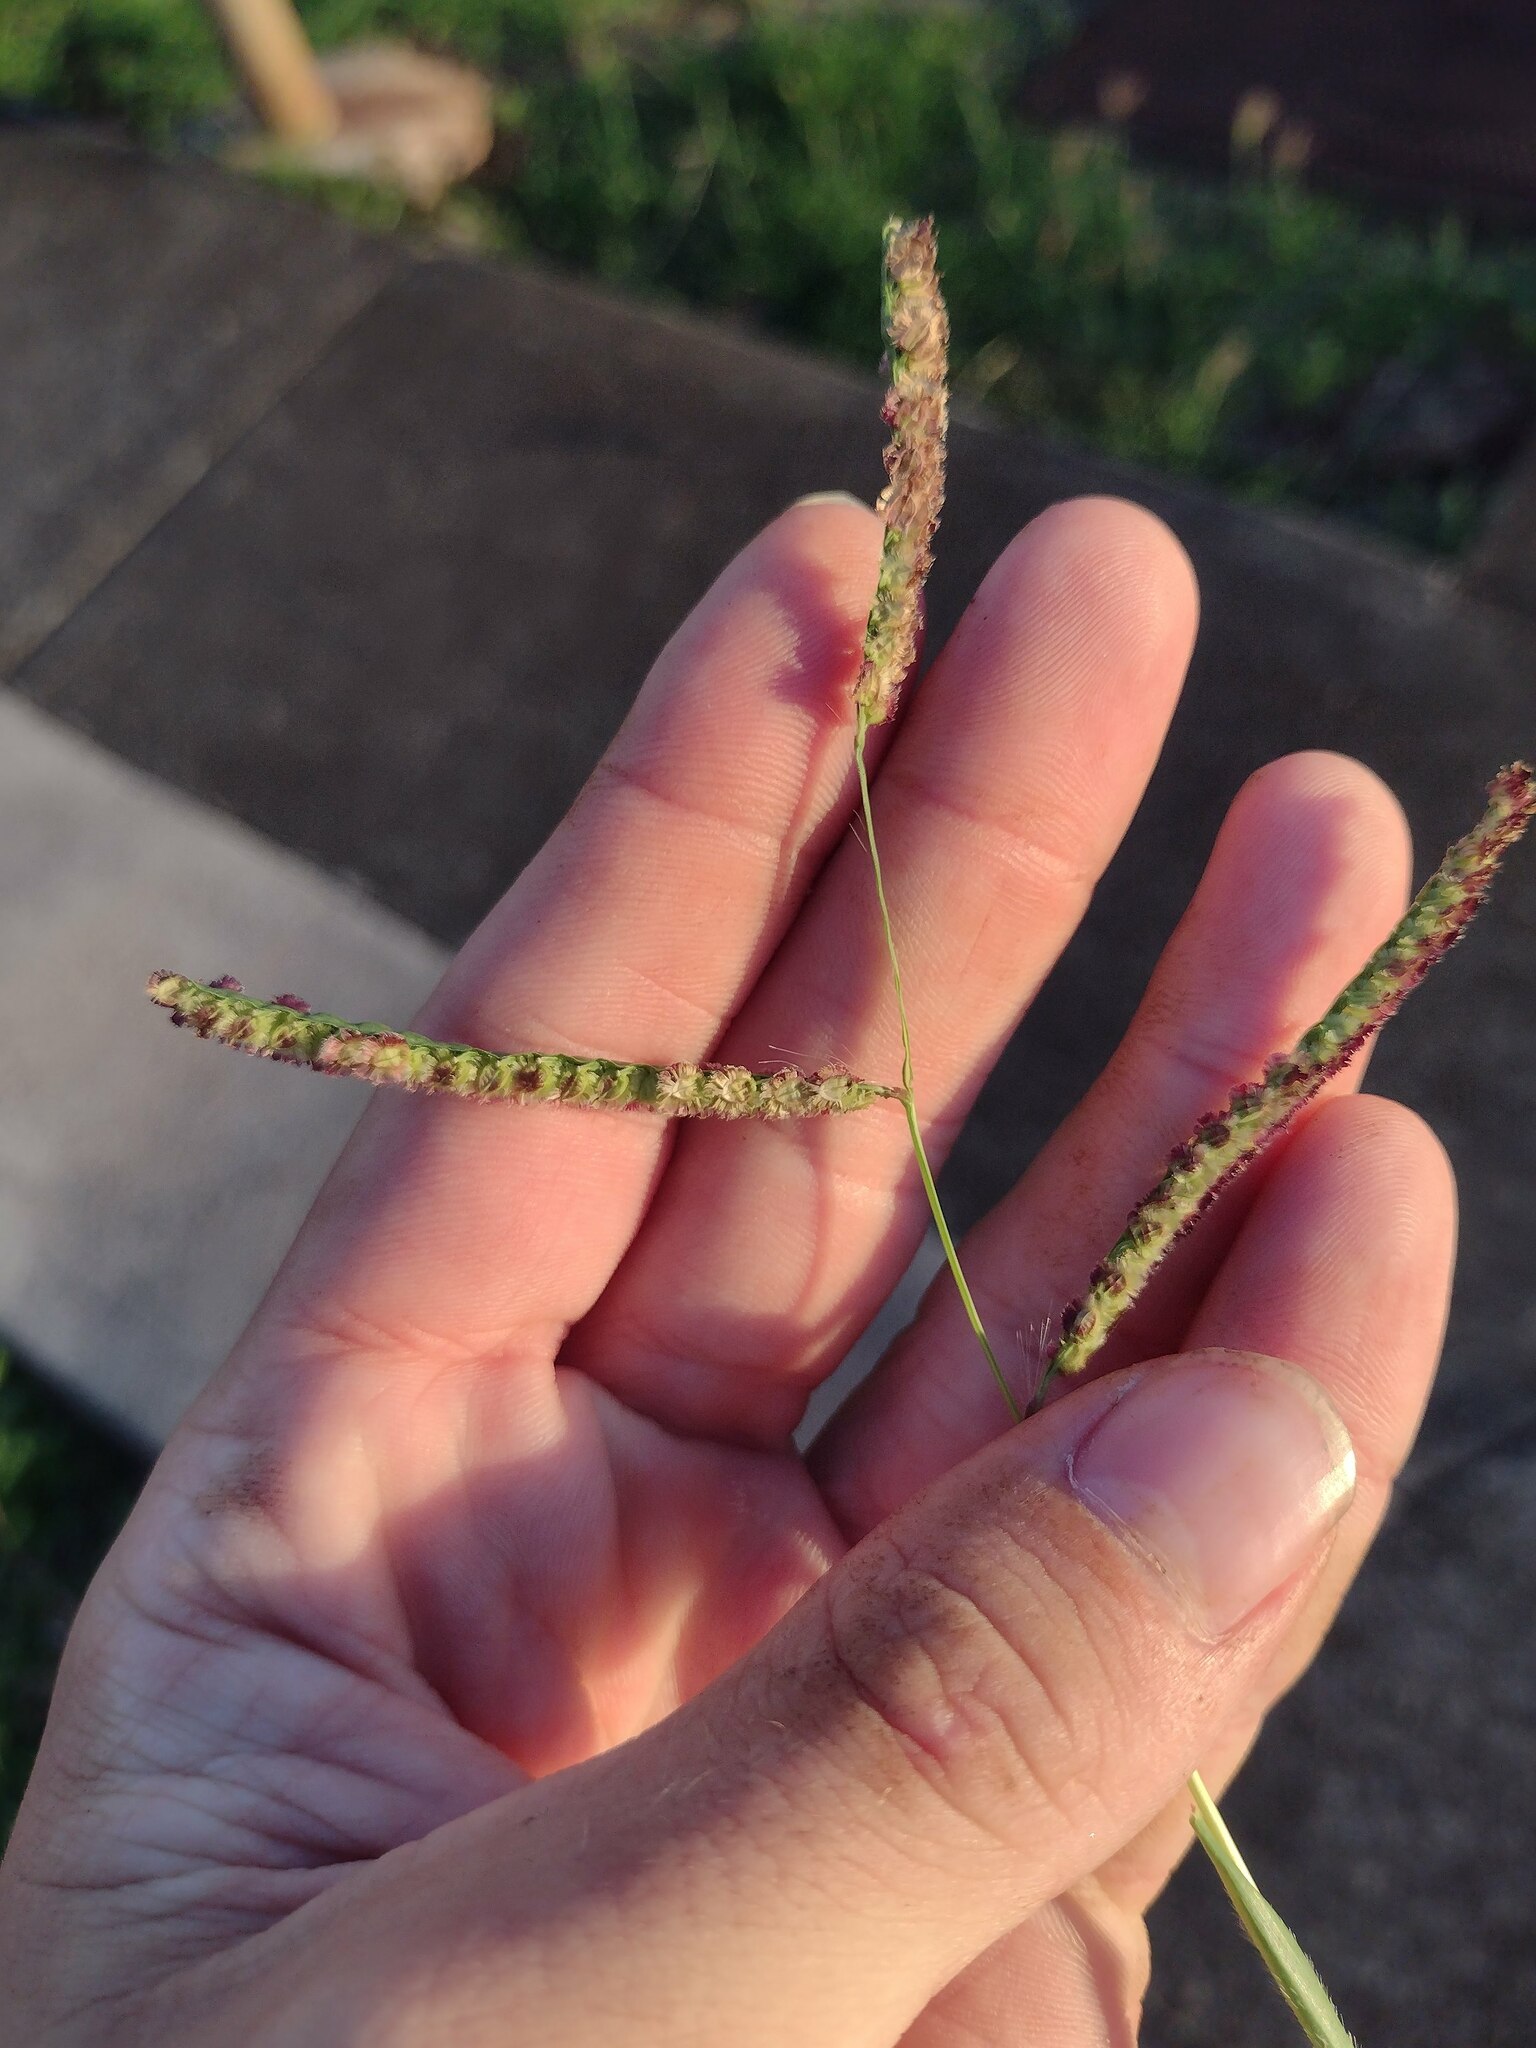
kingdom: Plantae
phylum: Tracheophyta
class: Liliopsida
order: Poales
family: Poaceae
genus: Paspalum
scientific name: Paspalum fimbriatum
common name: Panama crowngrass
